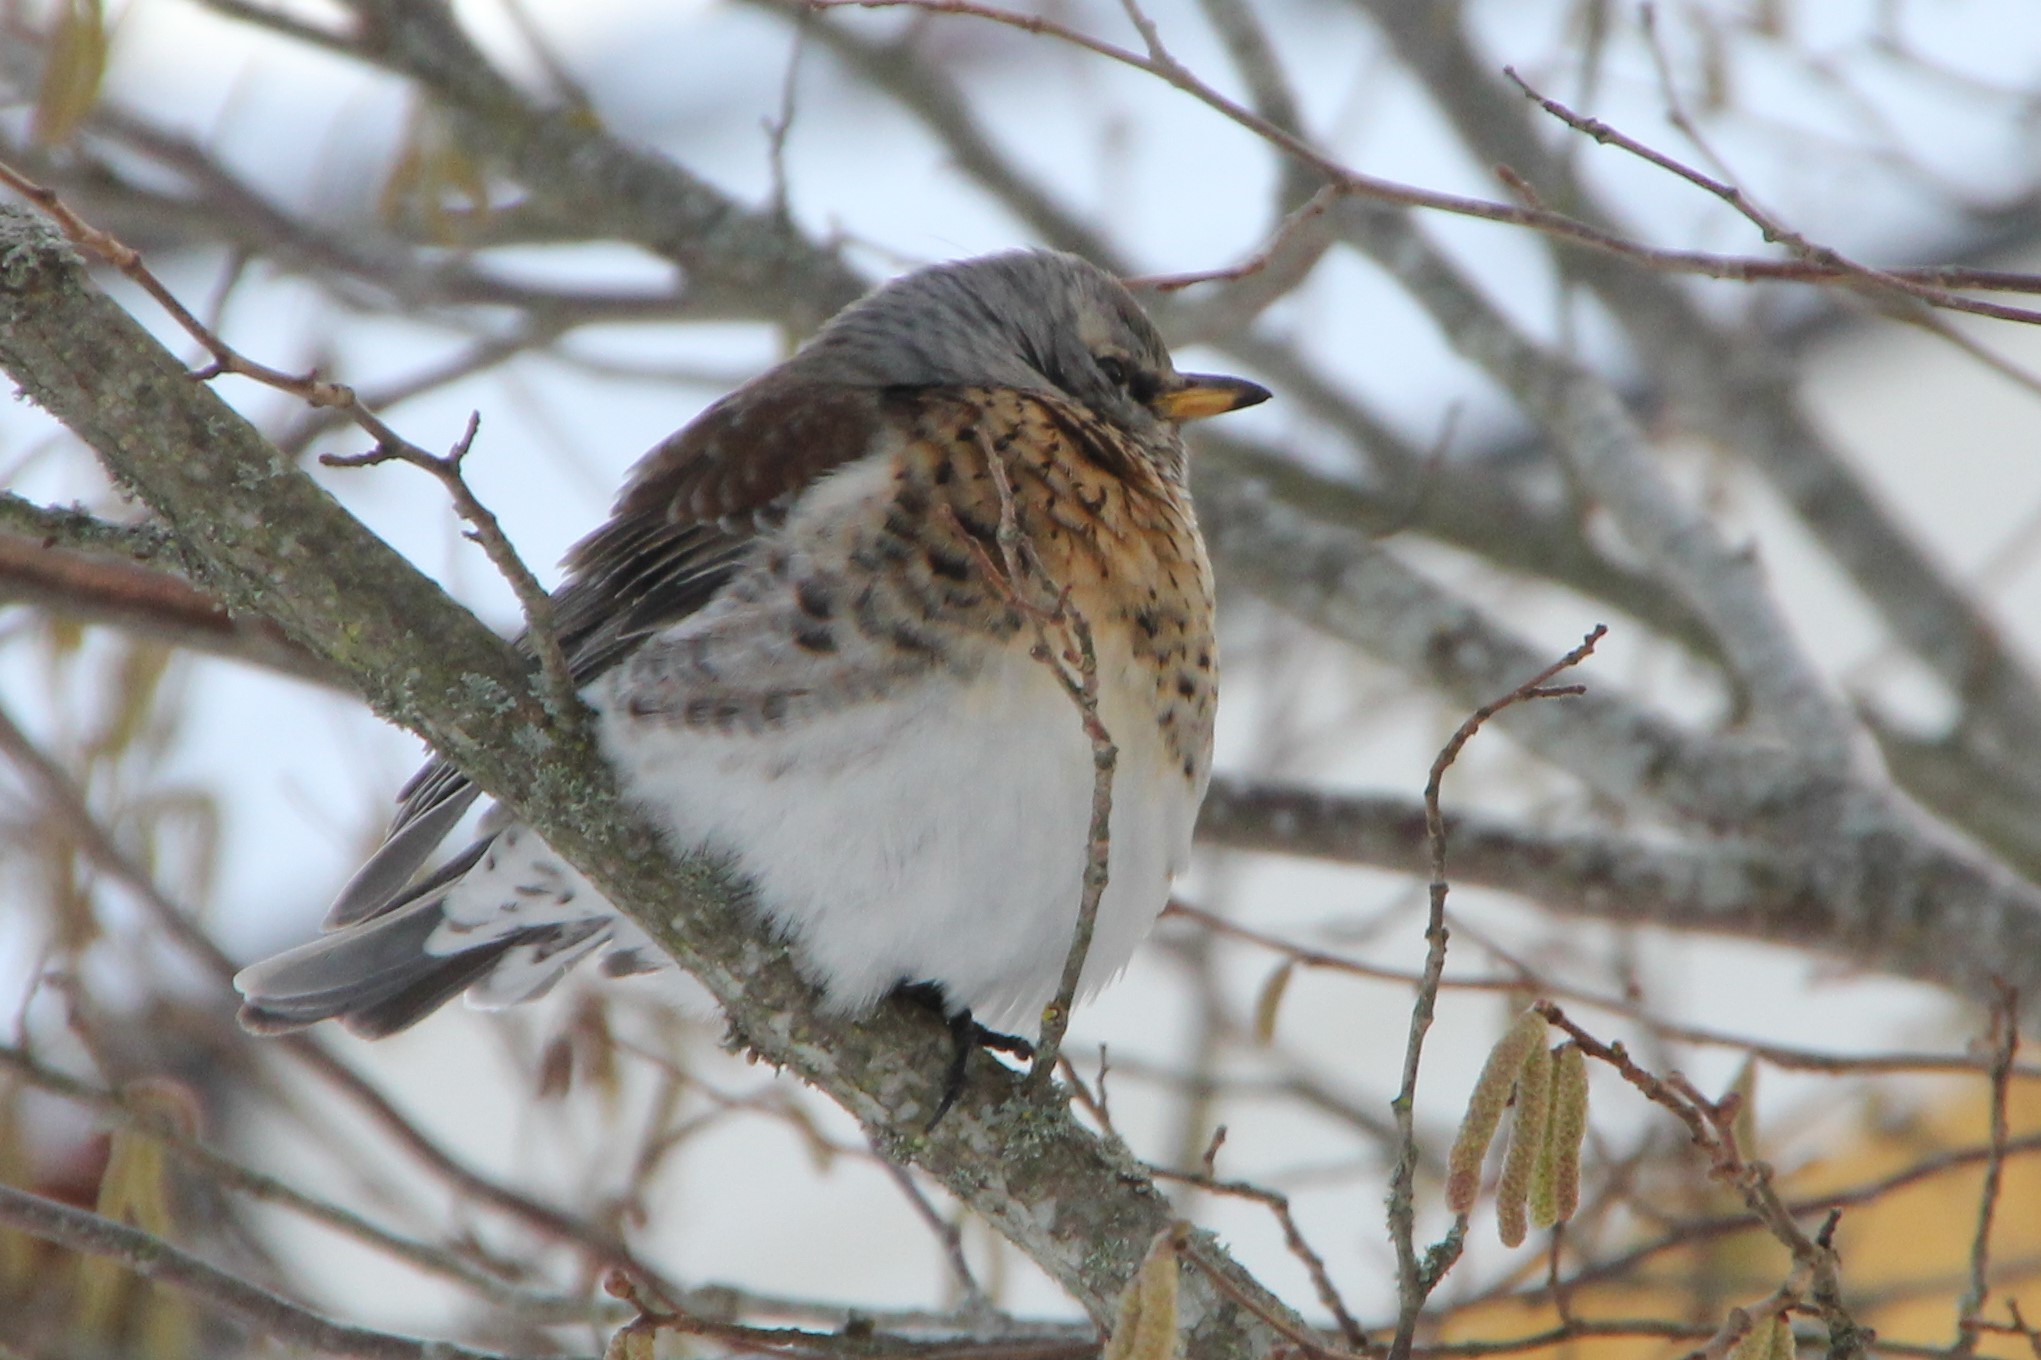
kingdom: Animalia
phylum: Chordata
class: Aves
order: Passeriformes
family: Turdidae
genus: Turdus
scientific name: Turdus pilaris
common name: Fieldfare
